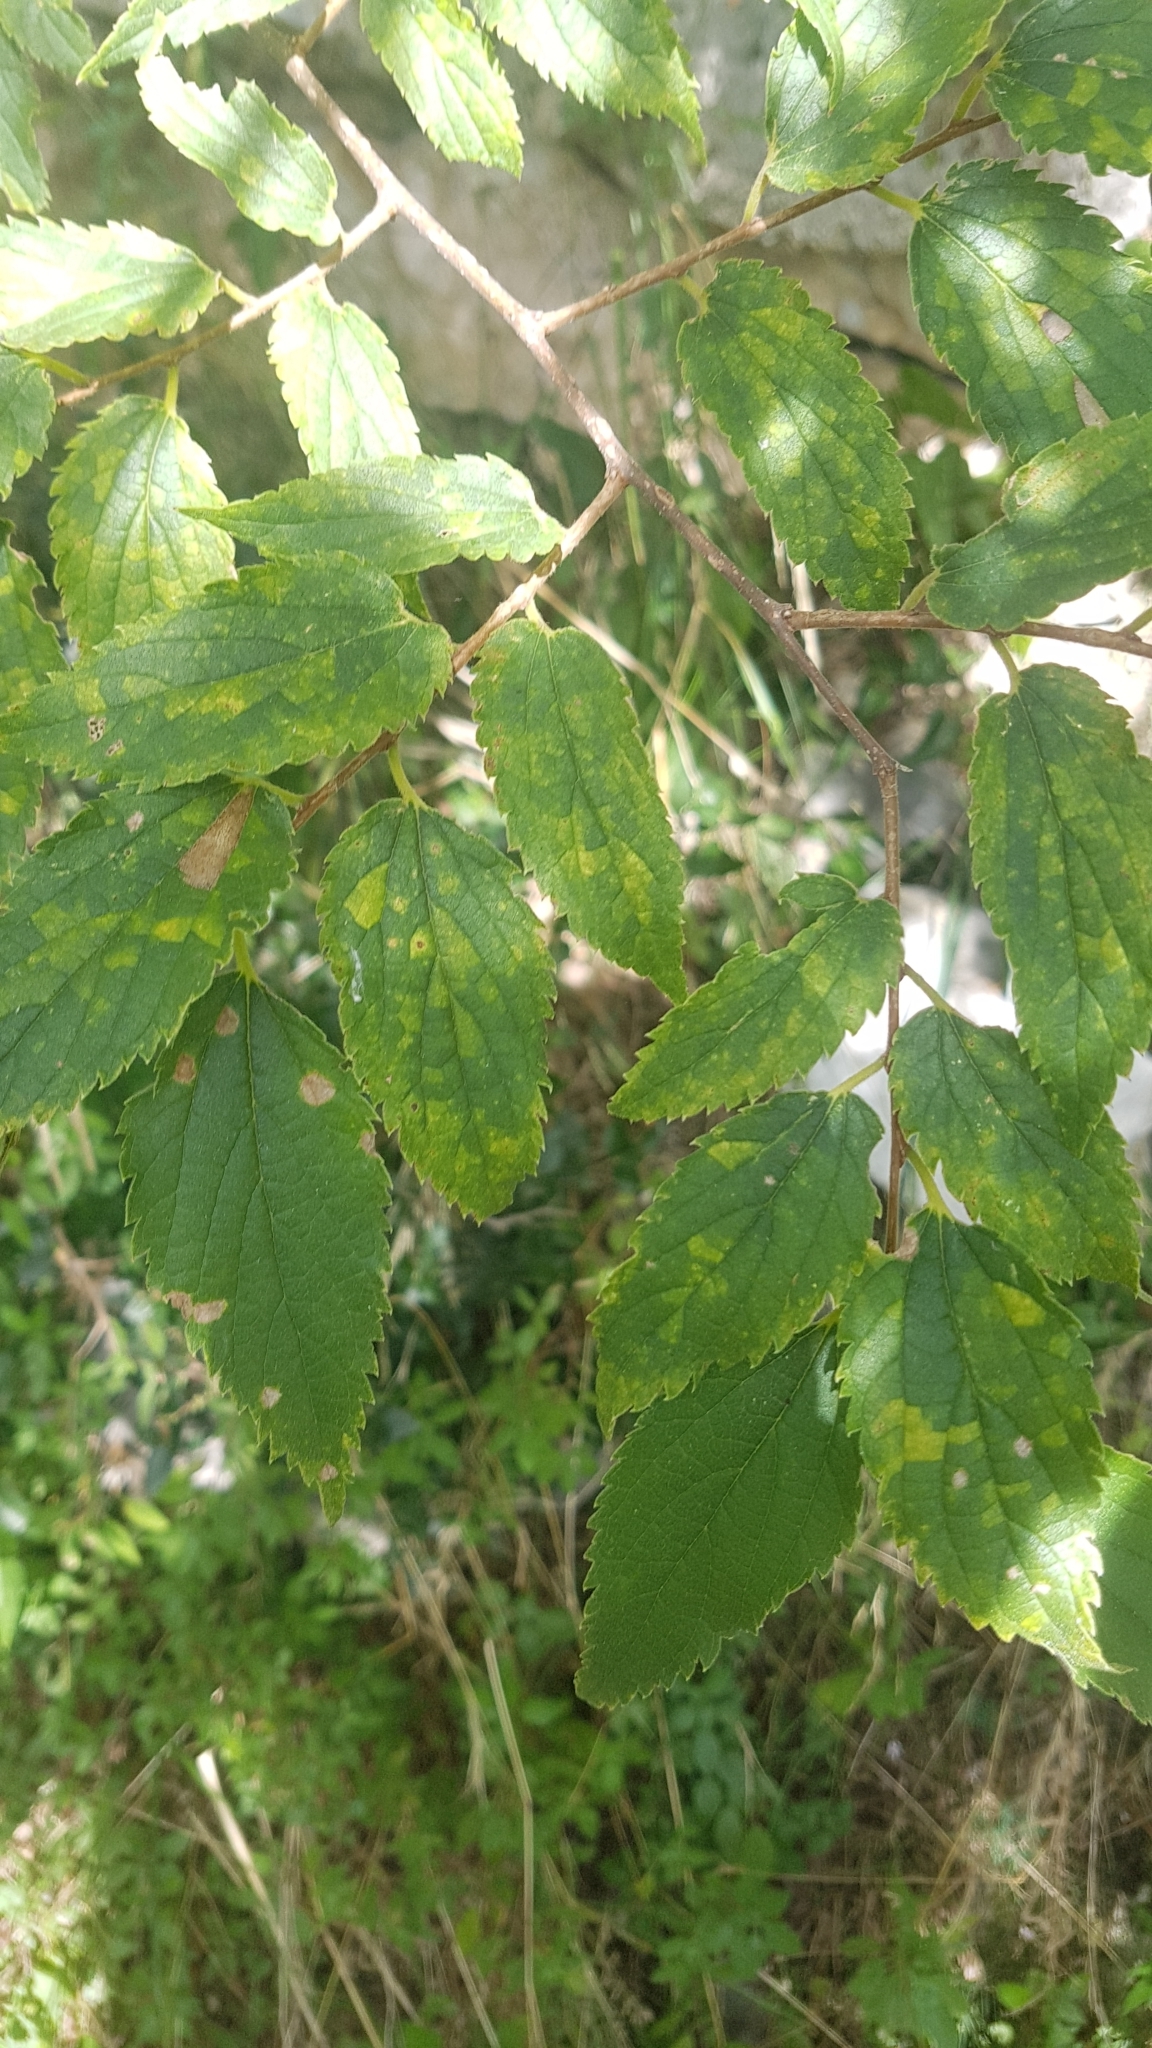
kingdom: Plantae
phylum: Tracheophyta
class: Magnoliopsida
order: Rosales
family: Cannabaceae
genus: Celtis
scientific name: Celtis australis
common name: European hackberry
